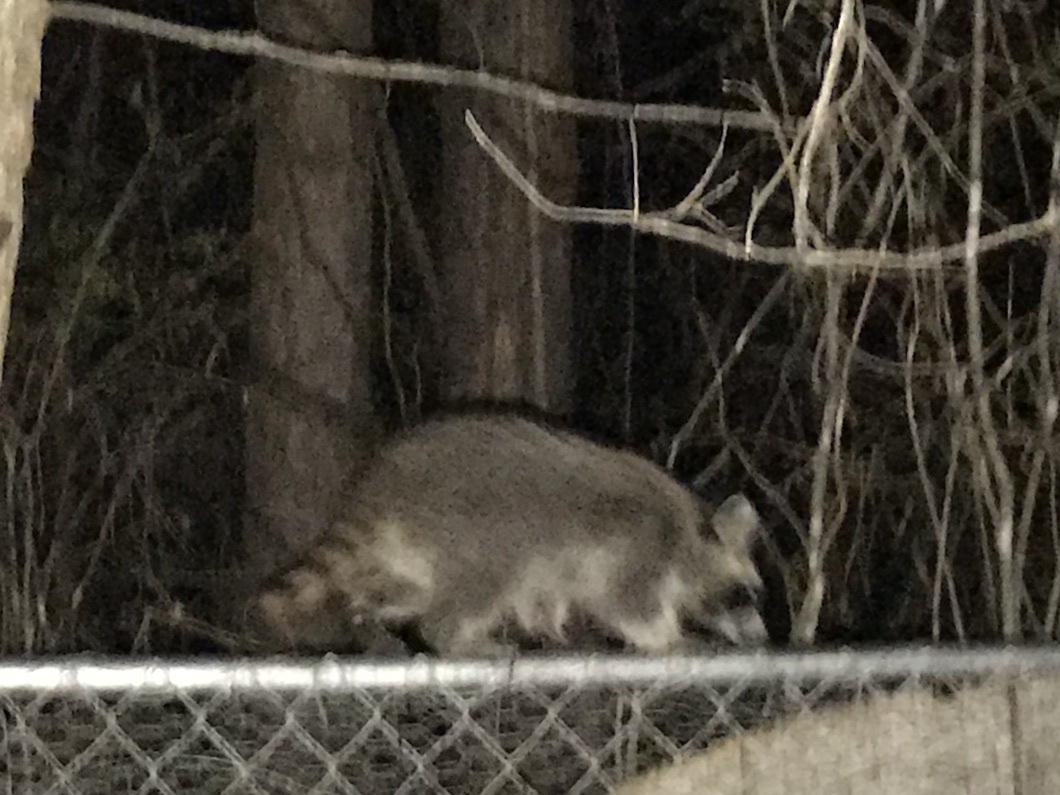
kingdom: Animalia
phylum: Chordata
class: Mammalia
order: Carnivora
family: Procyonidae
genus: Procyon
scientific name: Procyon lotor
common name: Raccoon
